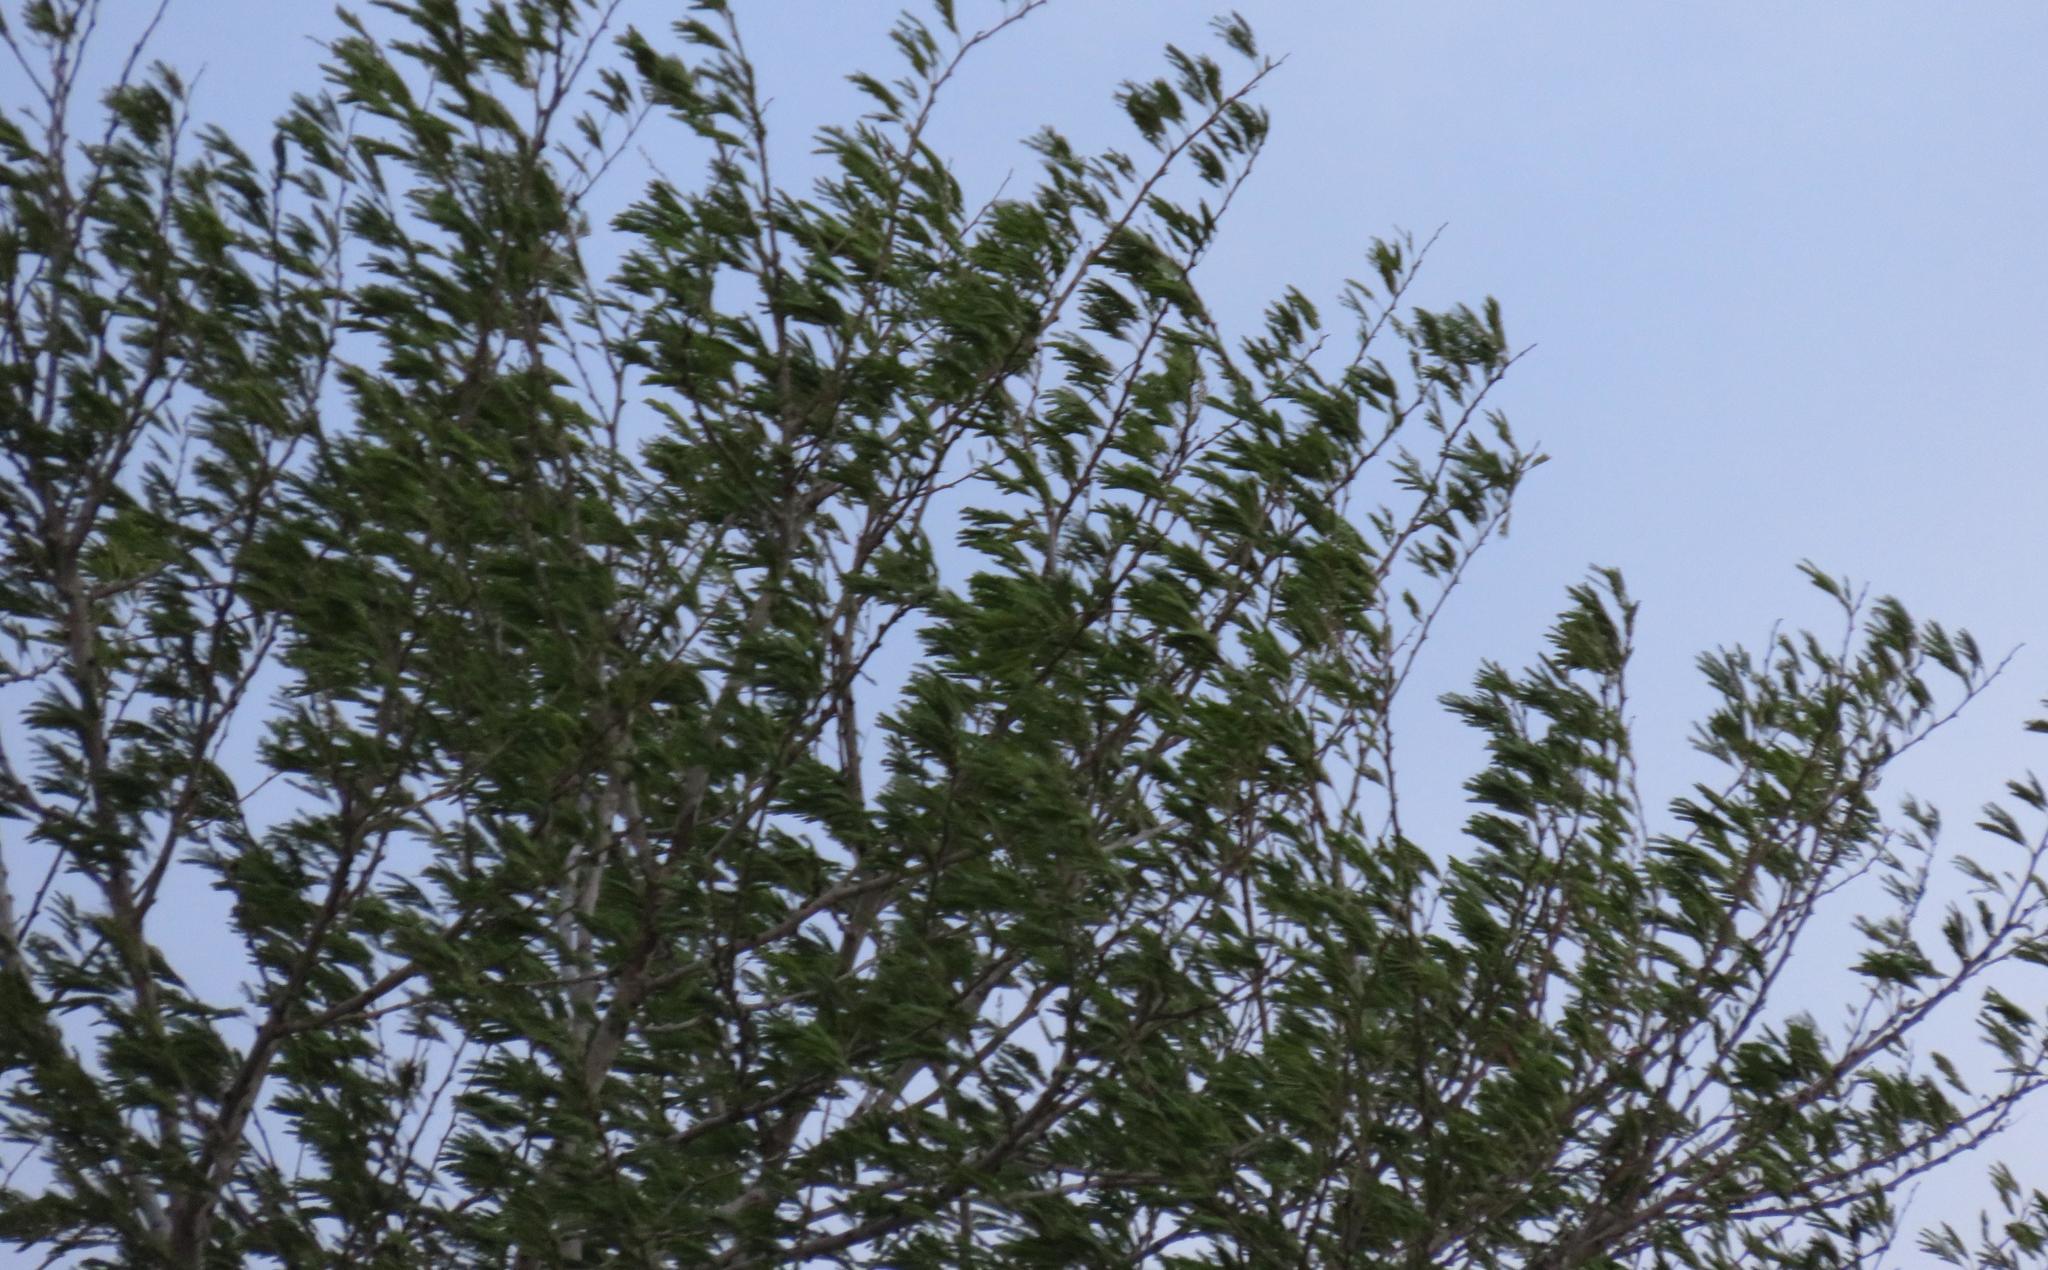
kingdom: Plantae
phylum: Tracheophyta
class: Magnoliopsida
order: Fabales
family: Fabaceae
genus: Vachellia
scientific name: Vachellia xanthophloea
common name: Fever tree
